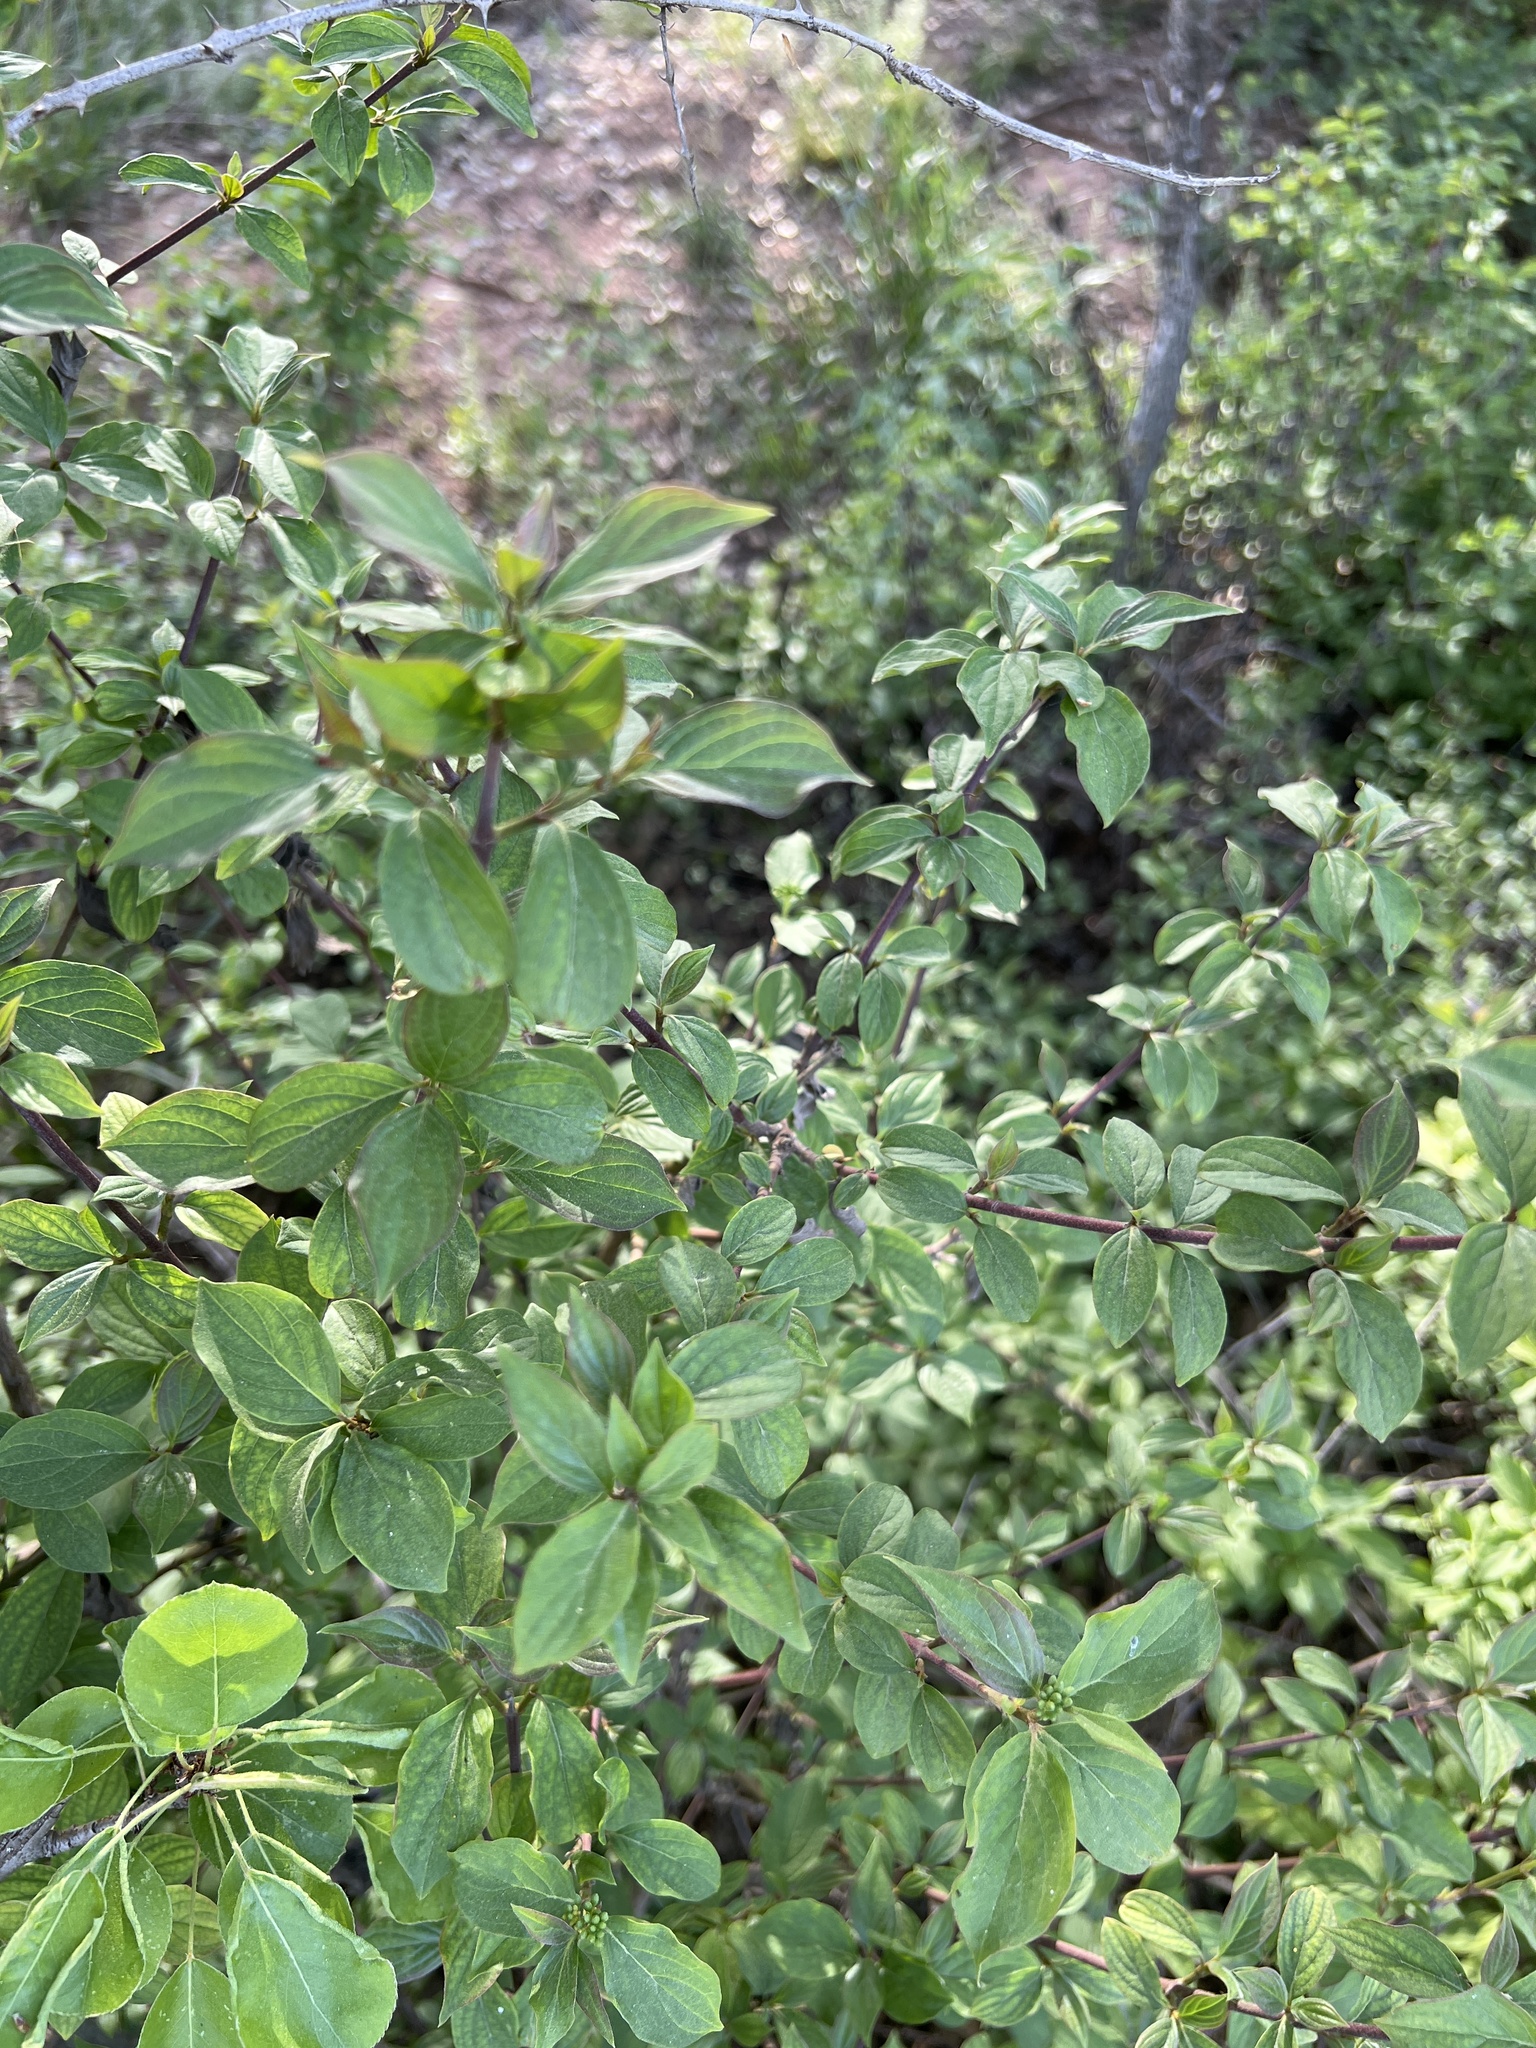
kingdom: Plantae
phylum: Tracheophyta
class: Magnoliopsida
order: Cornales
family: Cornaceae
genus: Cornus
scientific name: Cornus sanguinea
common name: Dogwood
